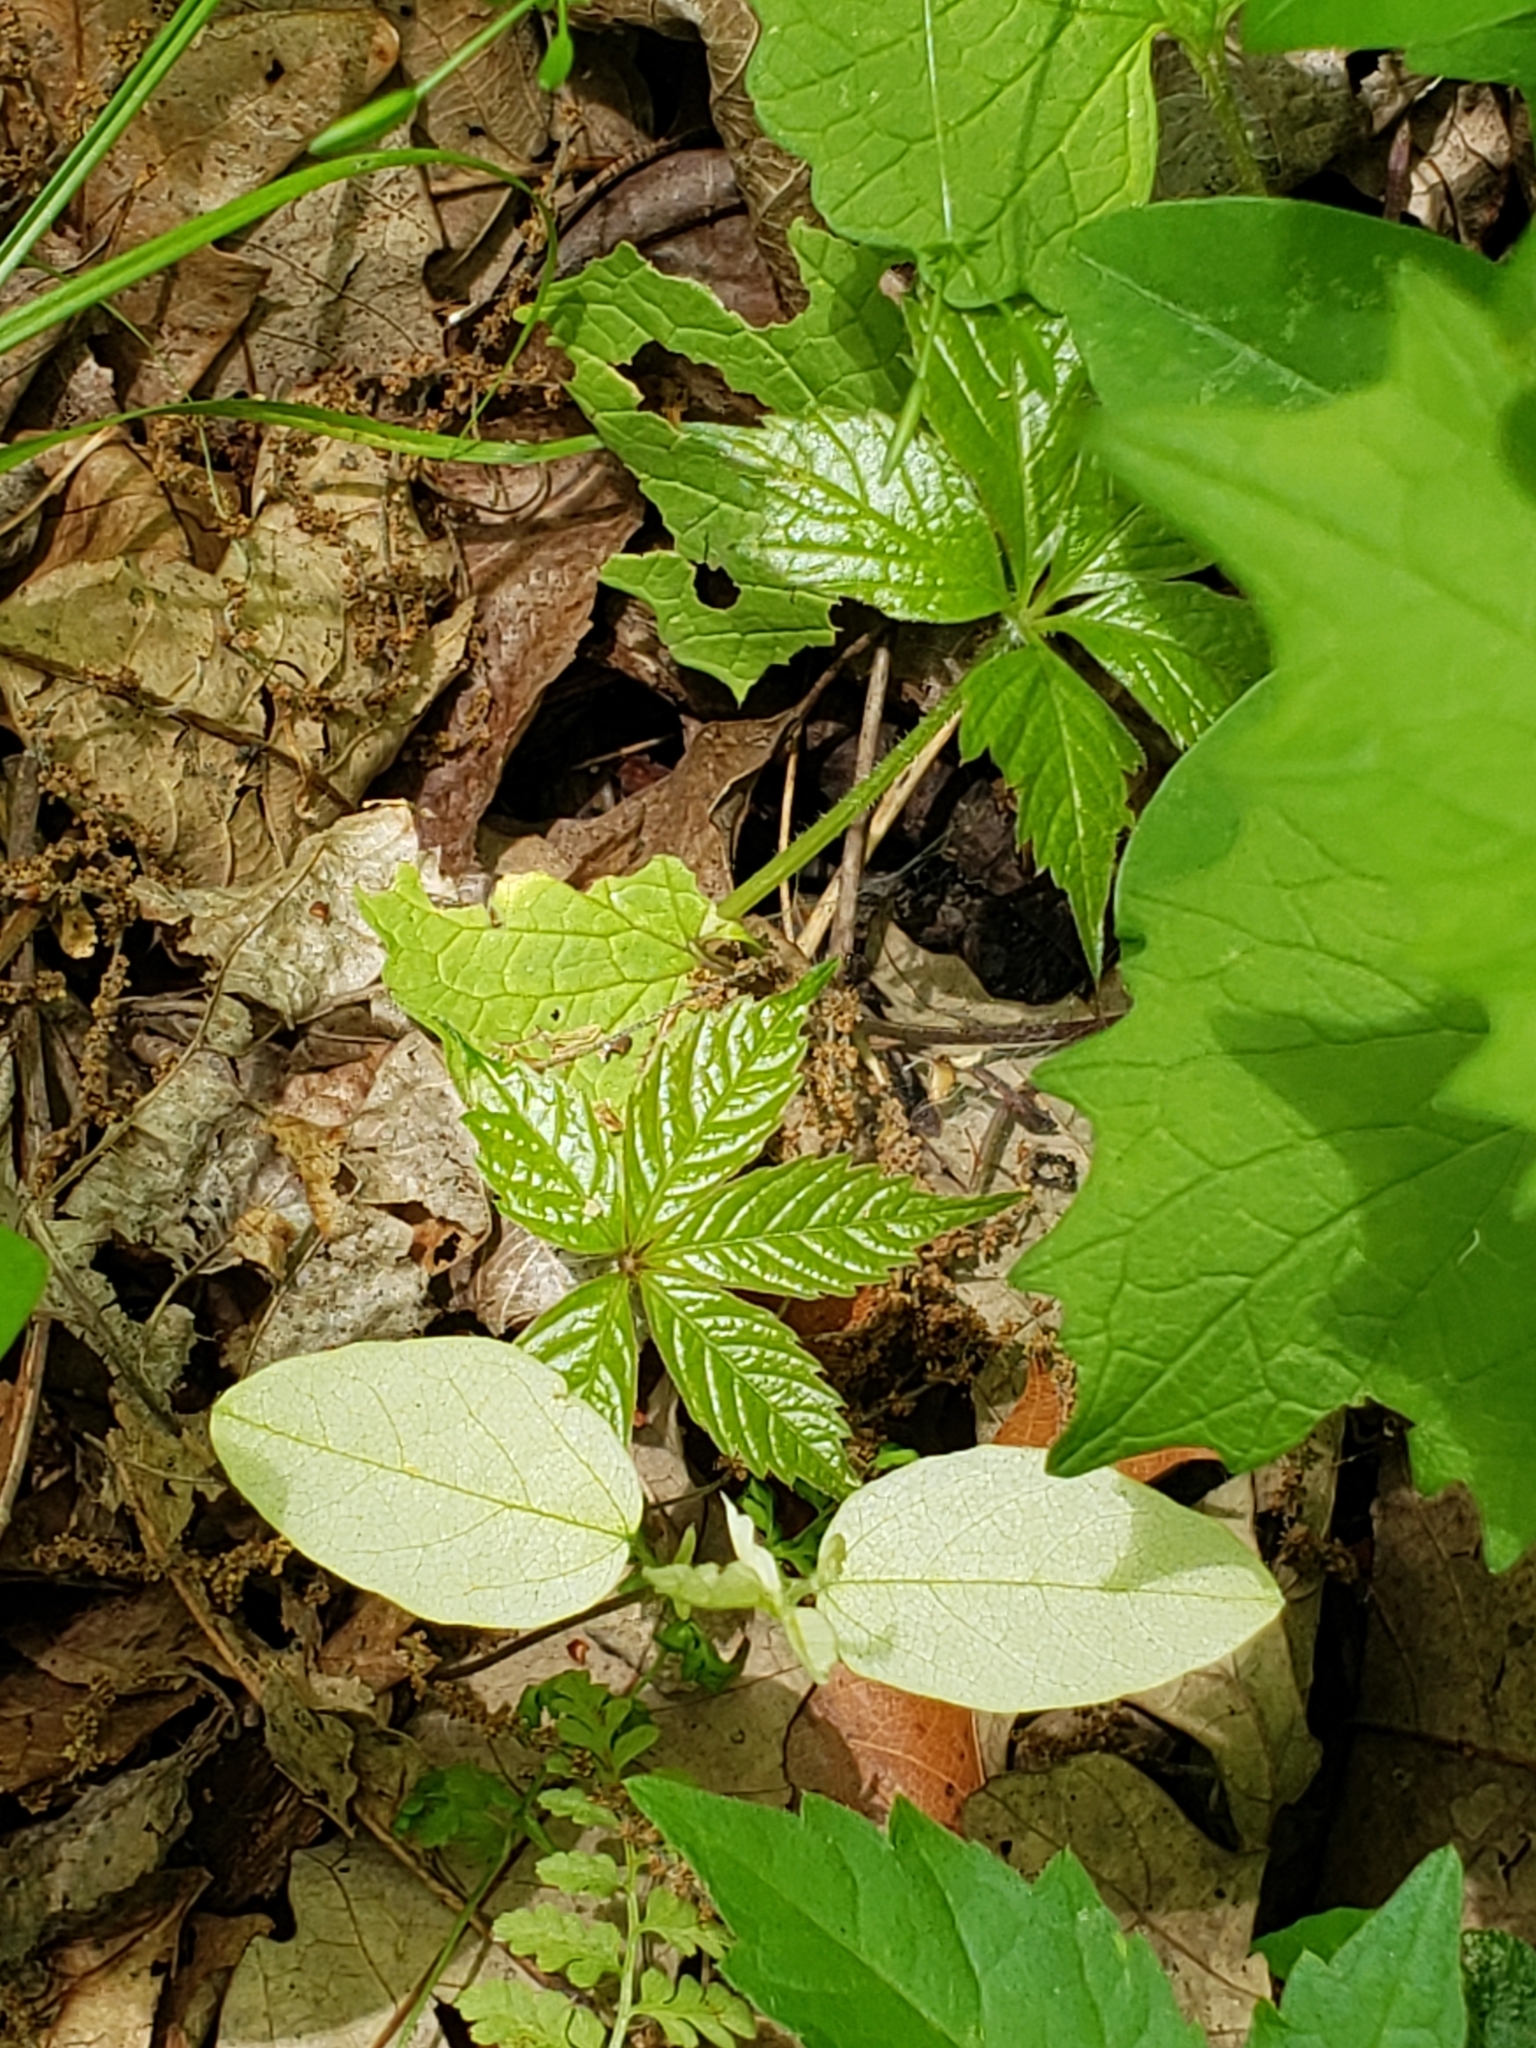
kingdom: Plantae
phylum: Tracheophyta
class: Magnoliopsida
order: Fabales
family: Fabaceae
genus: Amphicarpaea
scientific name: Amphicarpaea bracteata
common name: American hog peanut
